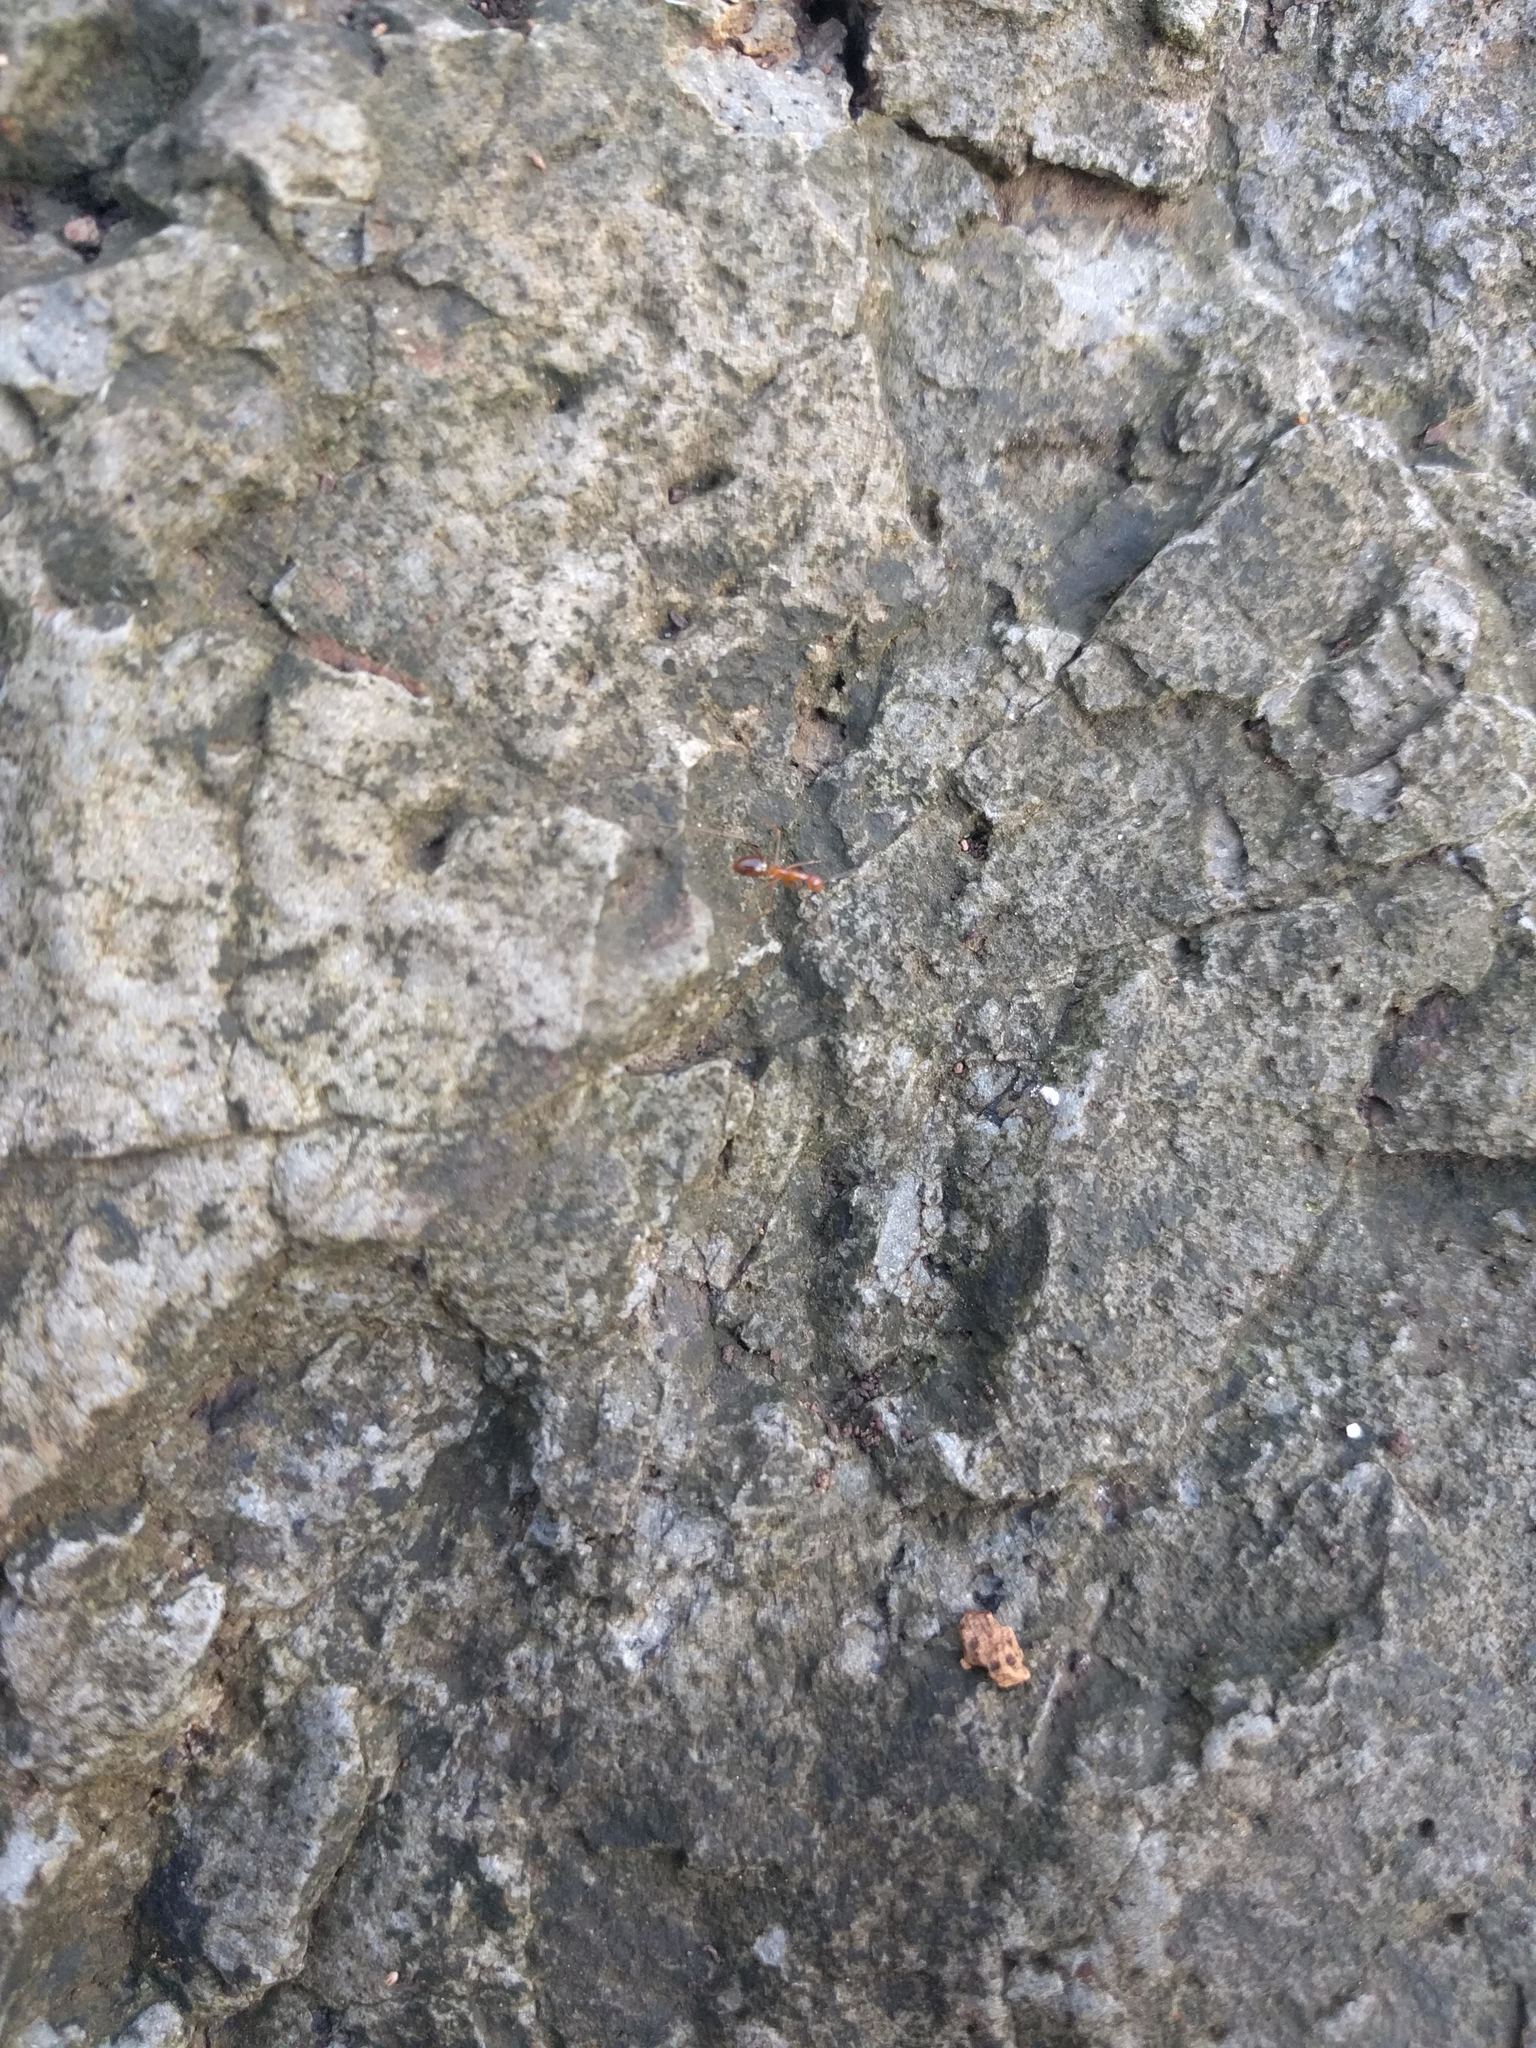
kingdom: Animalia
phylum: Arthropoda
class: Insecta
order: Hymenoptera
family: Formicidae
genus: Anoplolepis
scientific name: Anoplolepis gracilipes
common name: Ant
